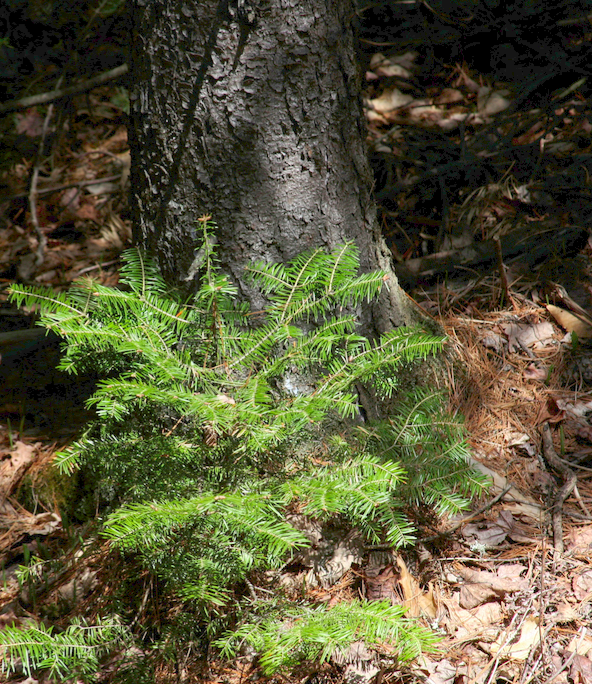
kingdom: Plantae
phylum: Tracheophyta
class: Pinopsida
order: Pinales
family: Pinaceae
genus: Abies
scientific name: Abies balsamea
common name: Balsam fir
